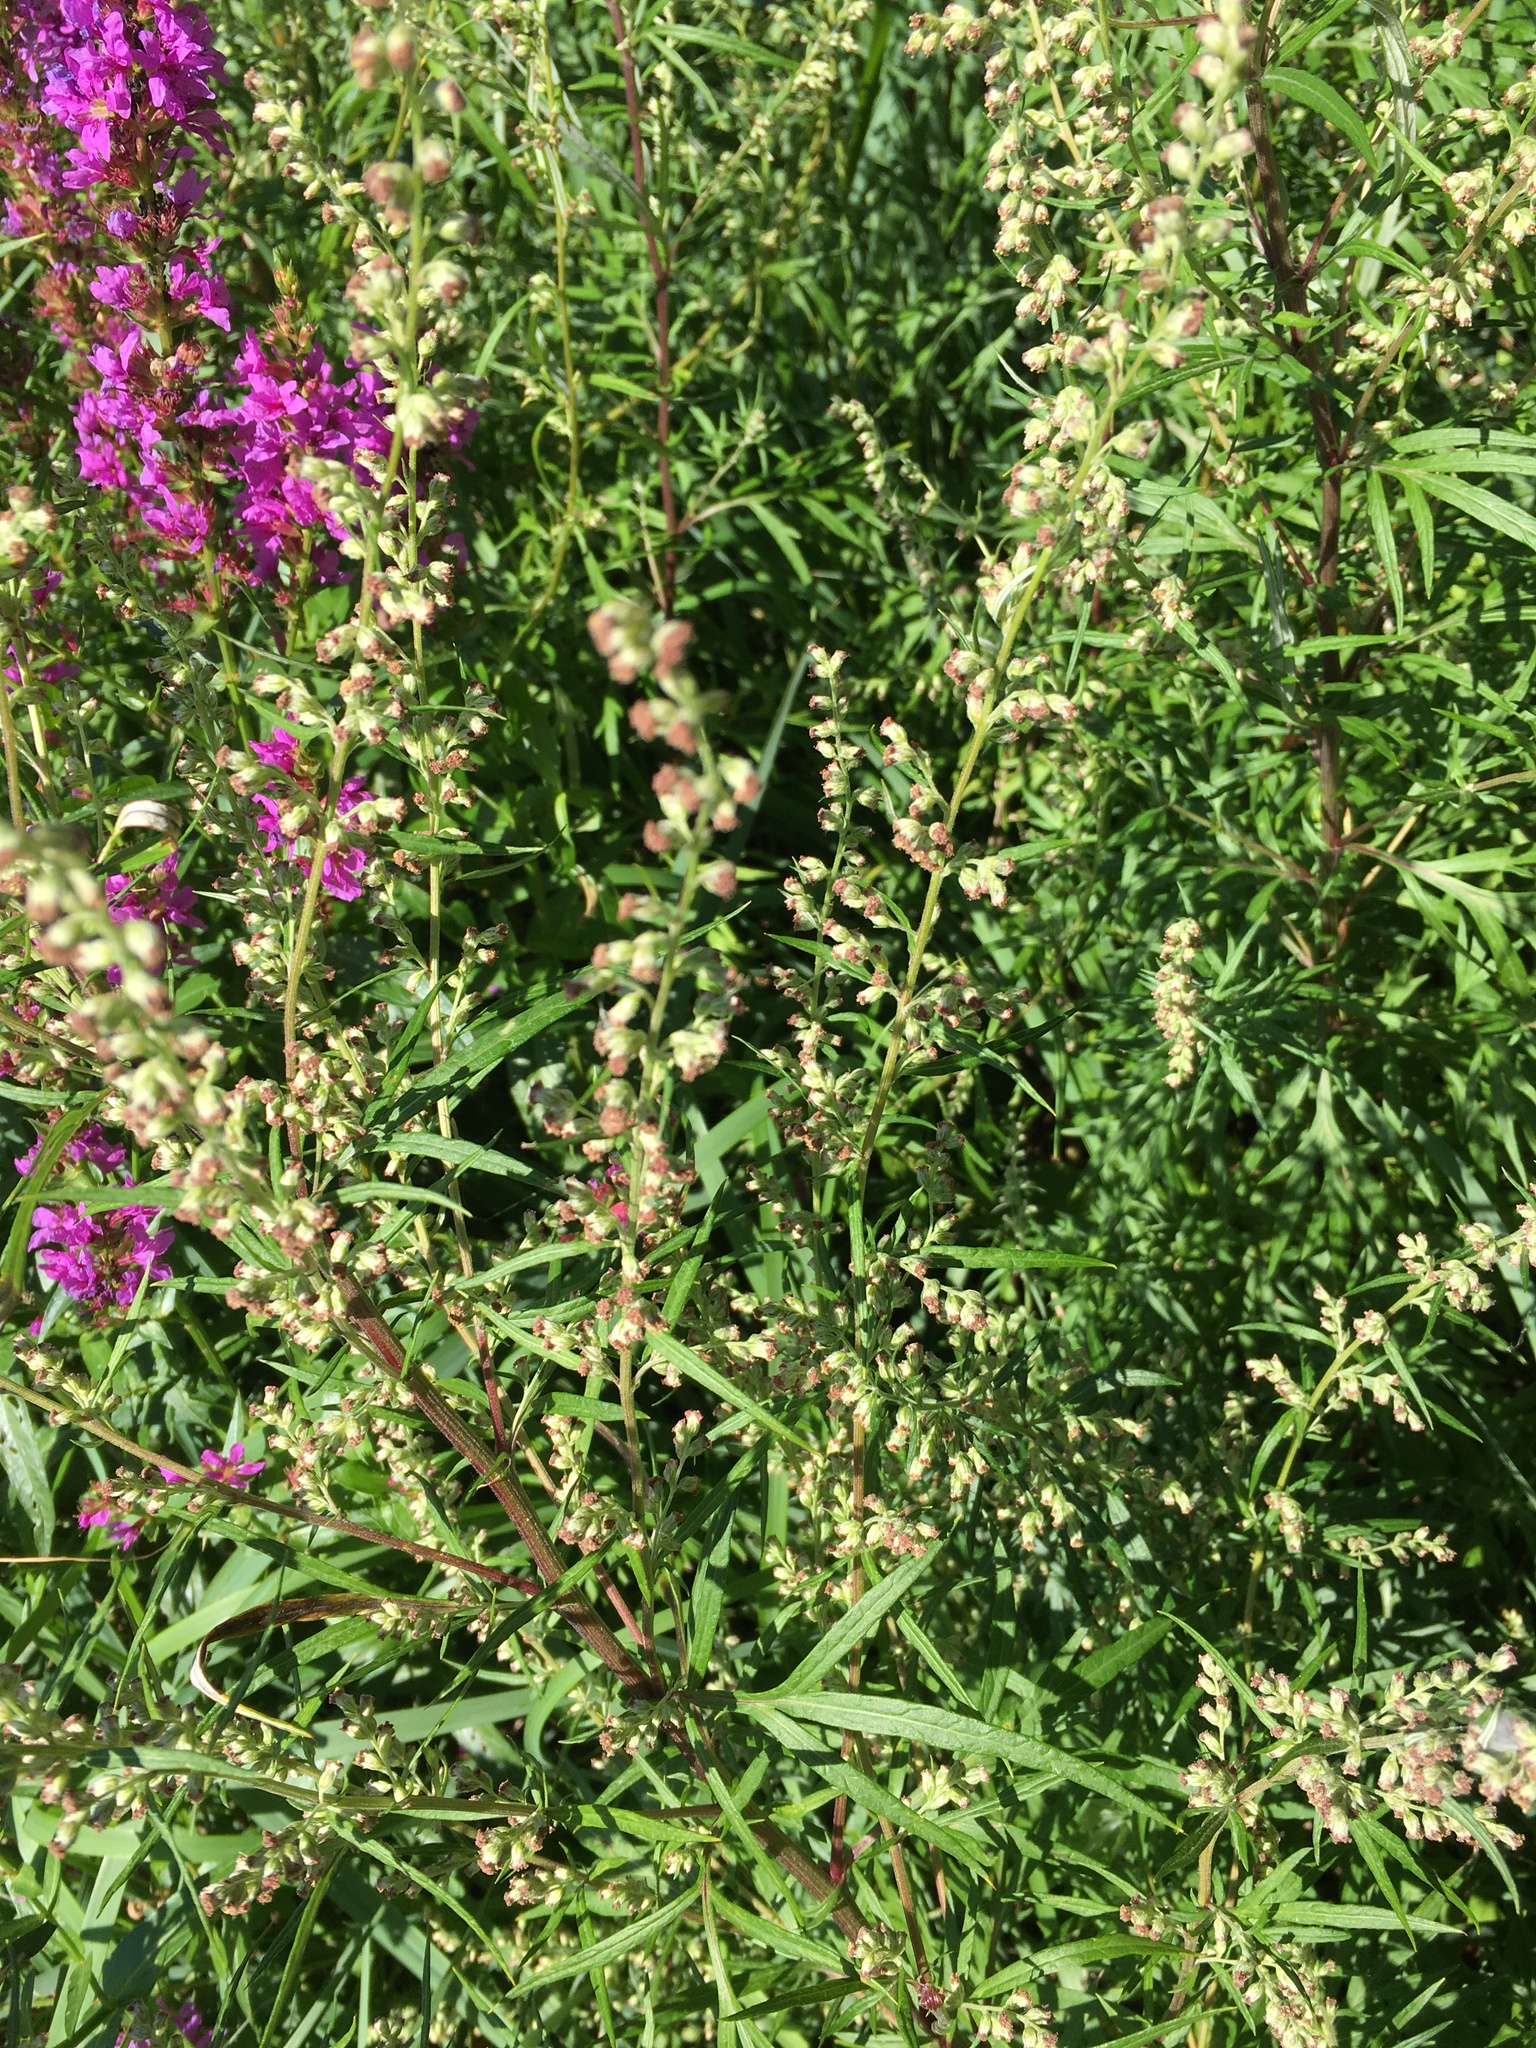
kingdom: Plantae
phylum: Tracheophyta
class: Magnoliopsida
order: Asterales
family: Asteraceae
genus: Artemisia
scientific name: Artemisia vulgaris
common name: Mugwort
